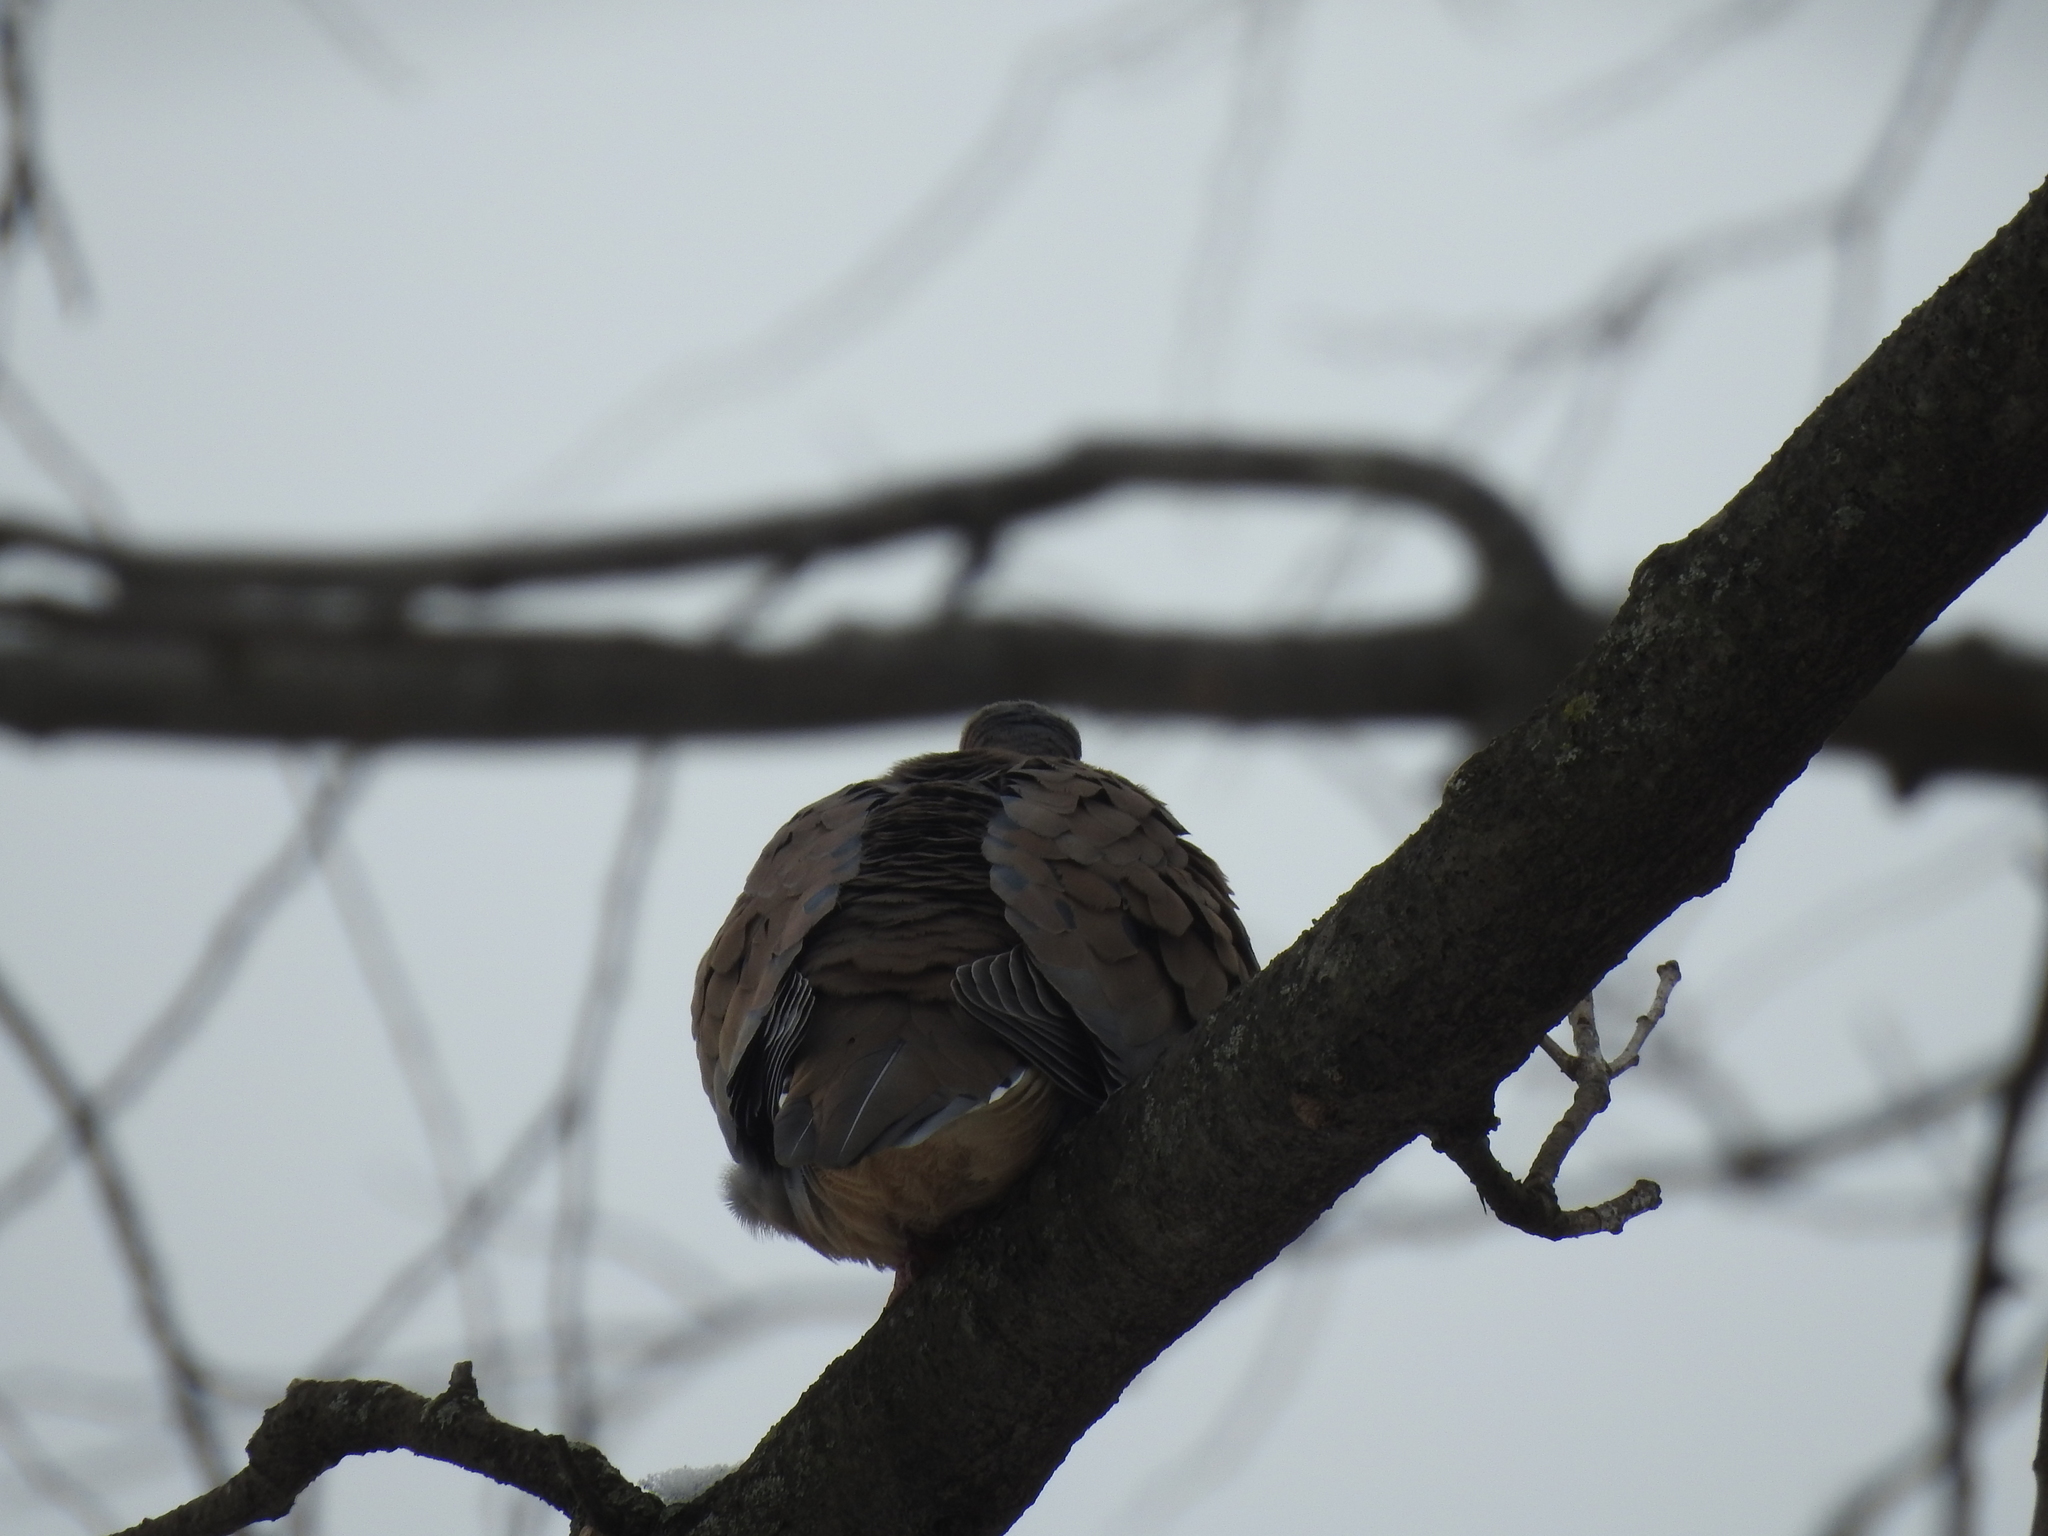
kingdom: Animalia
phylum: Chordata
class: Aves
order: Columbiformes
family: Columbidae
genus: Zenaida
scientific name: Zenaida macroura
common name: Mourning dove
